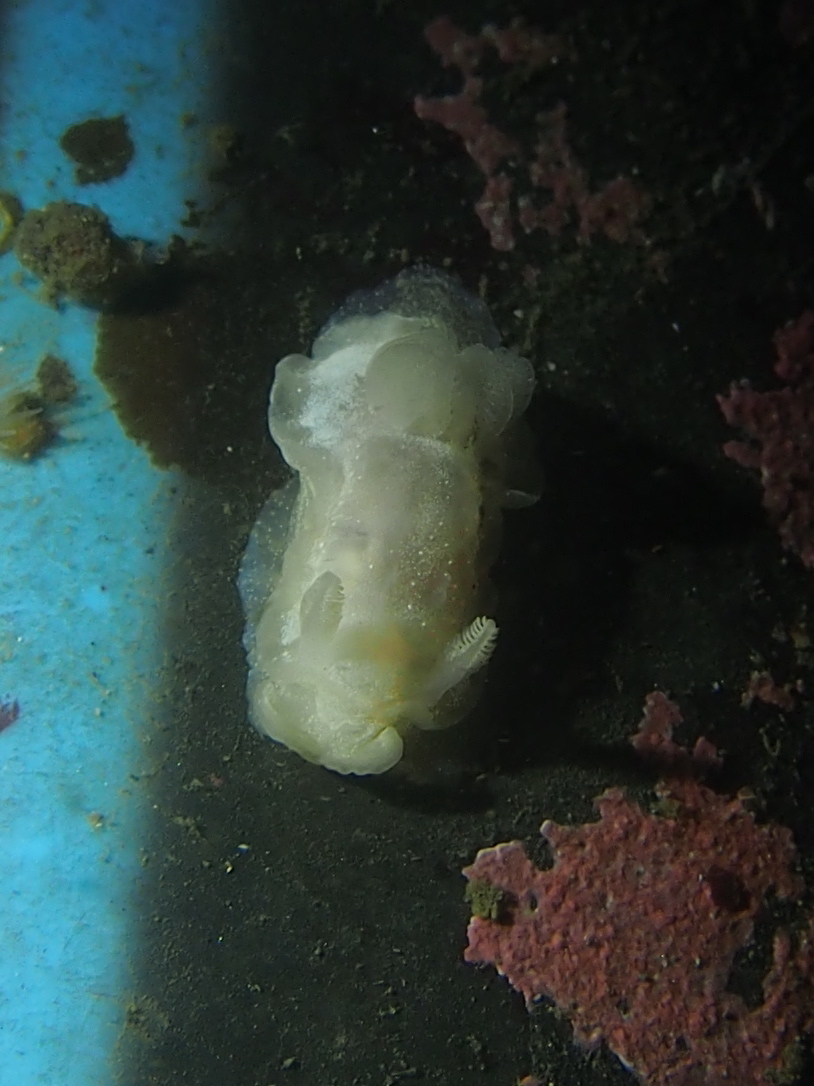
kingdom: Animalia
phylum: Mollusca
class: Gastropoda
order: Nudibranchia
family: Goniodorididae
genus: Okenia
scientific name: Okenia
